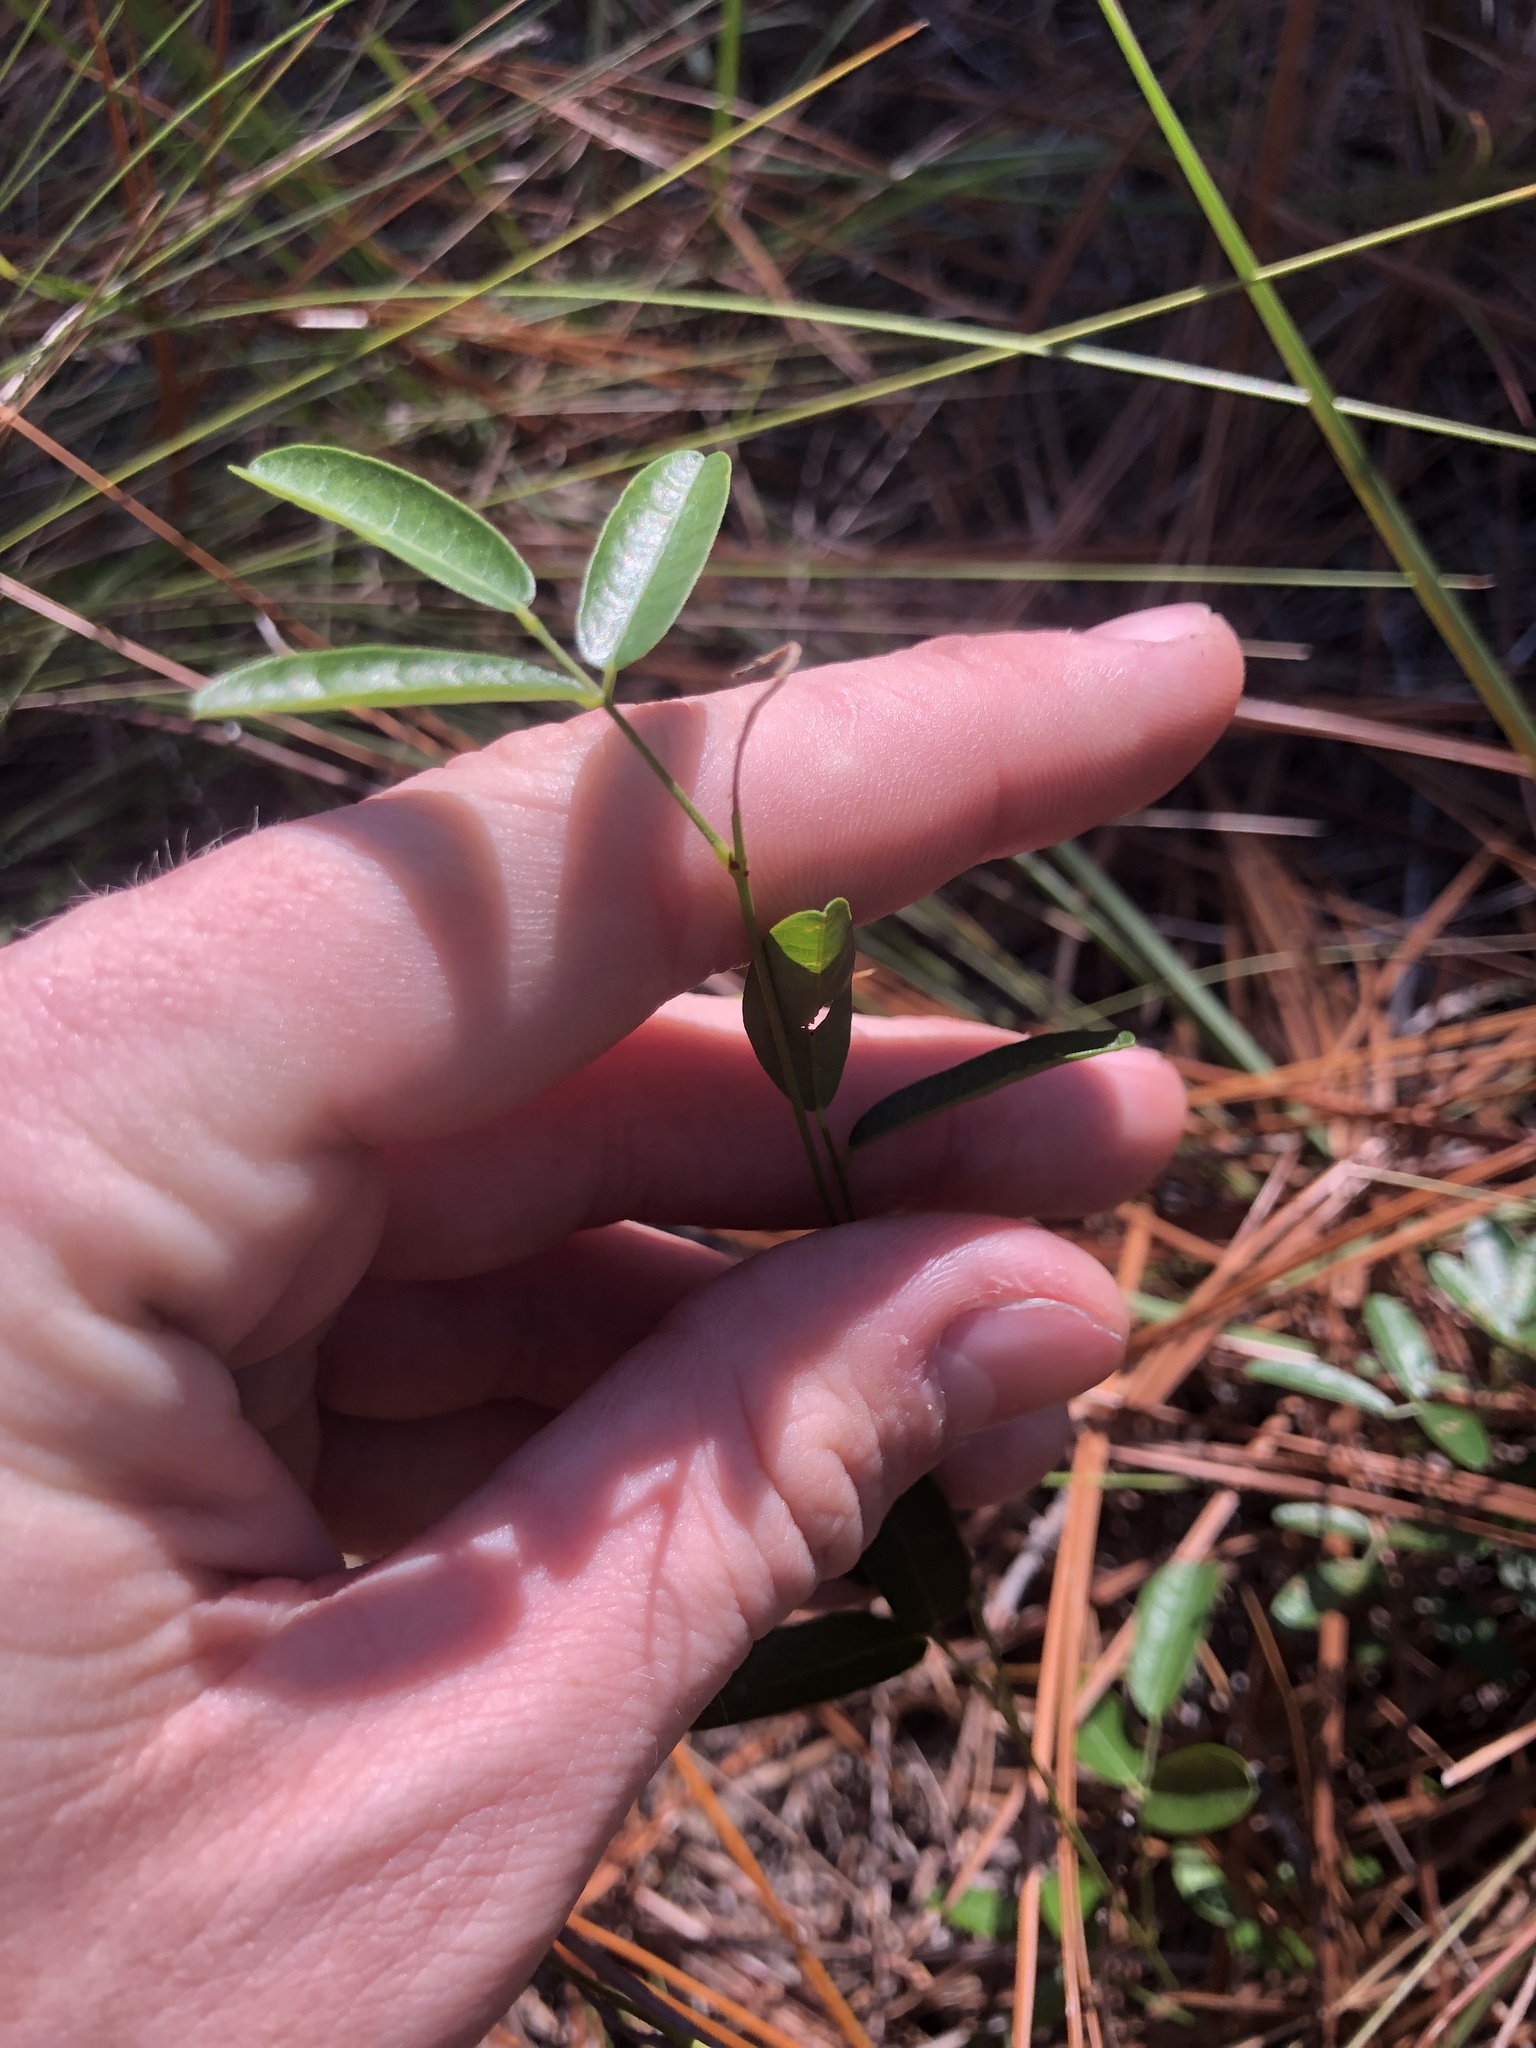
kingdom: Plantae
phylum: Tracheophyta
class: Magnoliopsida
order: Fabales
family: Fabaceae
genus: Galactia
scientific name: Galactia erecta
